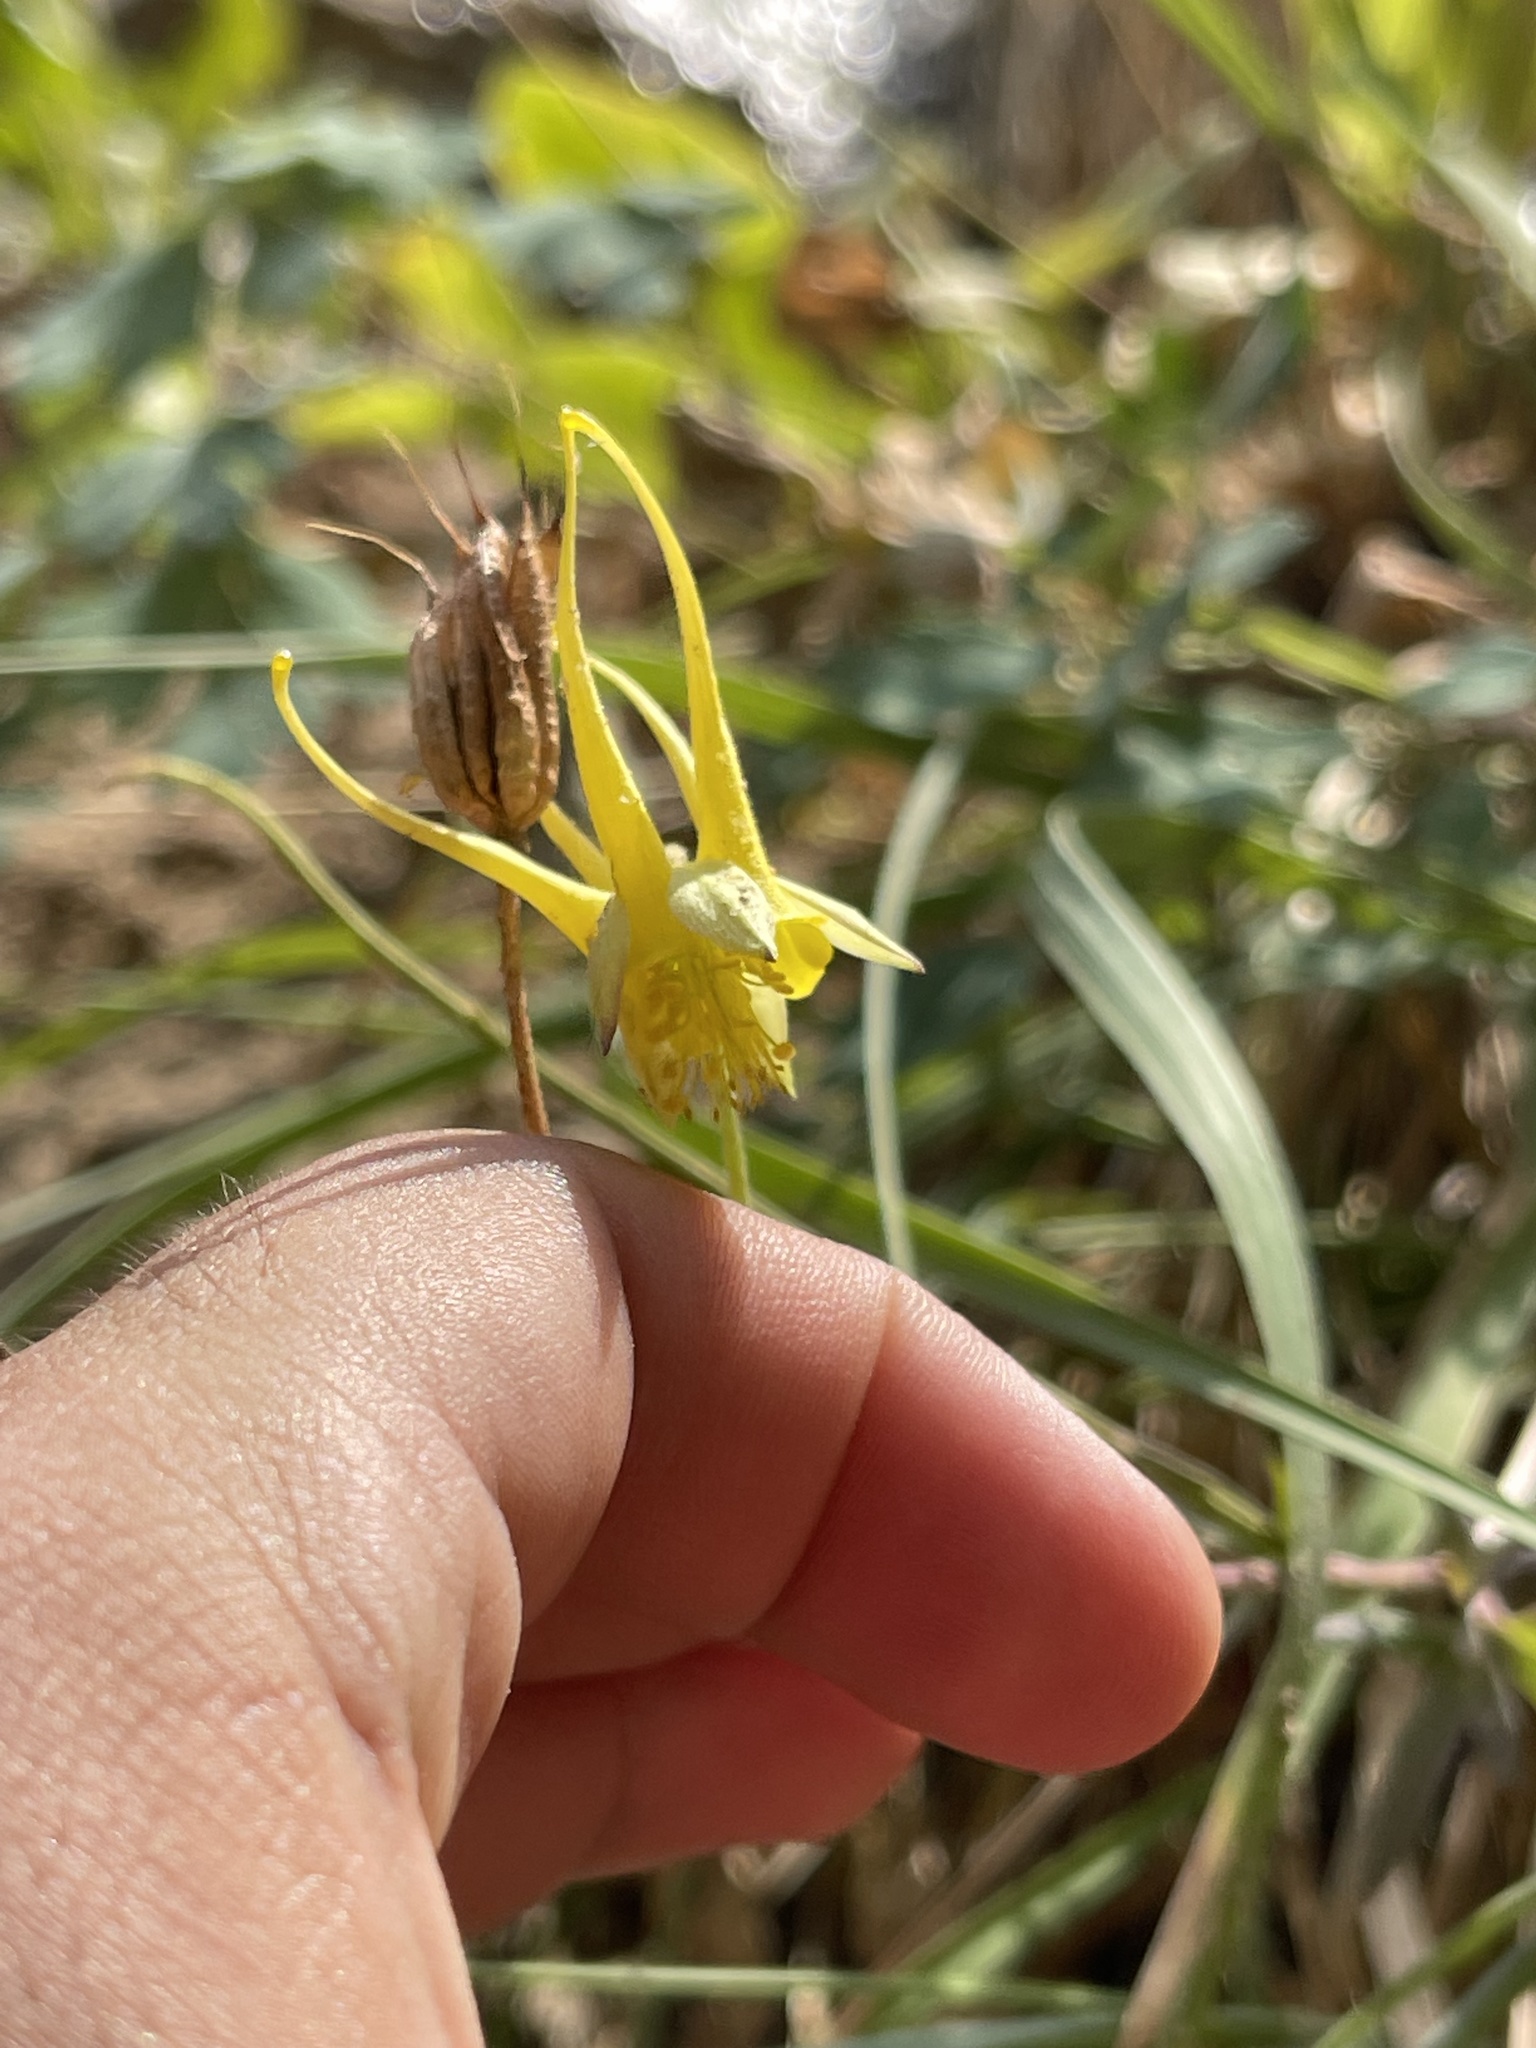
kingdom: Plantae
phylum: Tracheophyta
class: Magnoliopsida
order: Ranunculales
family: Ranunculaceae
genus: Aquilegia
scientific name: Aquilegia chrysantha
